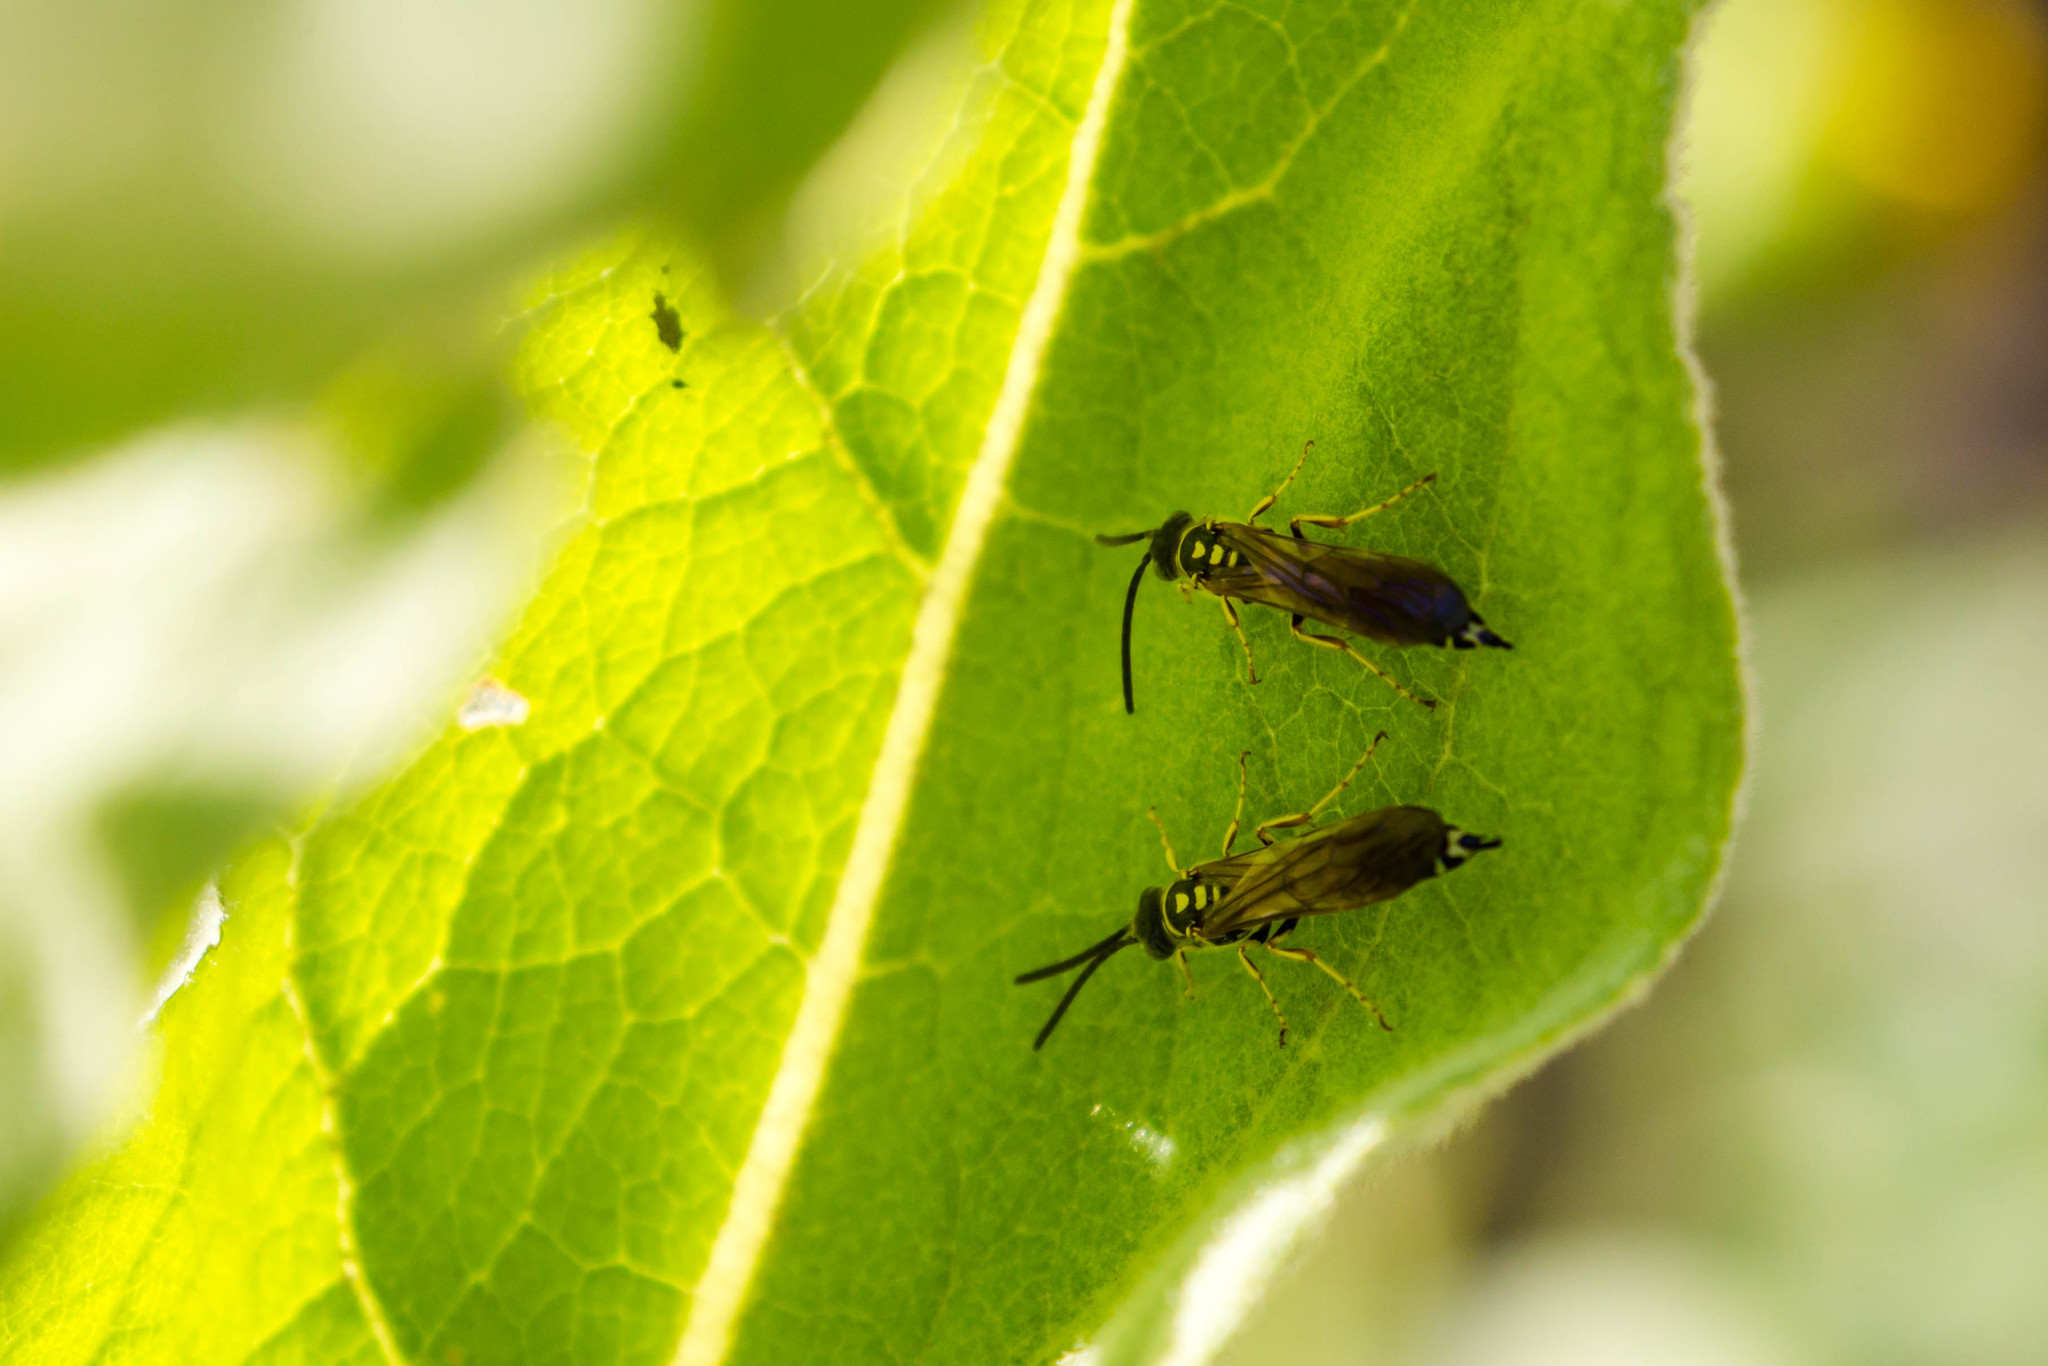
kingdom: Animalia
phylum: Arthropoda
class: Insecta
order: Hymenoptera
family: Tiphiidae
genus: Myzinum
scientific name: Myzinum quinquecinctum
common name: Five-banded thynnid wasp
